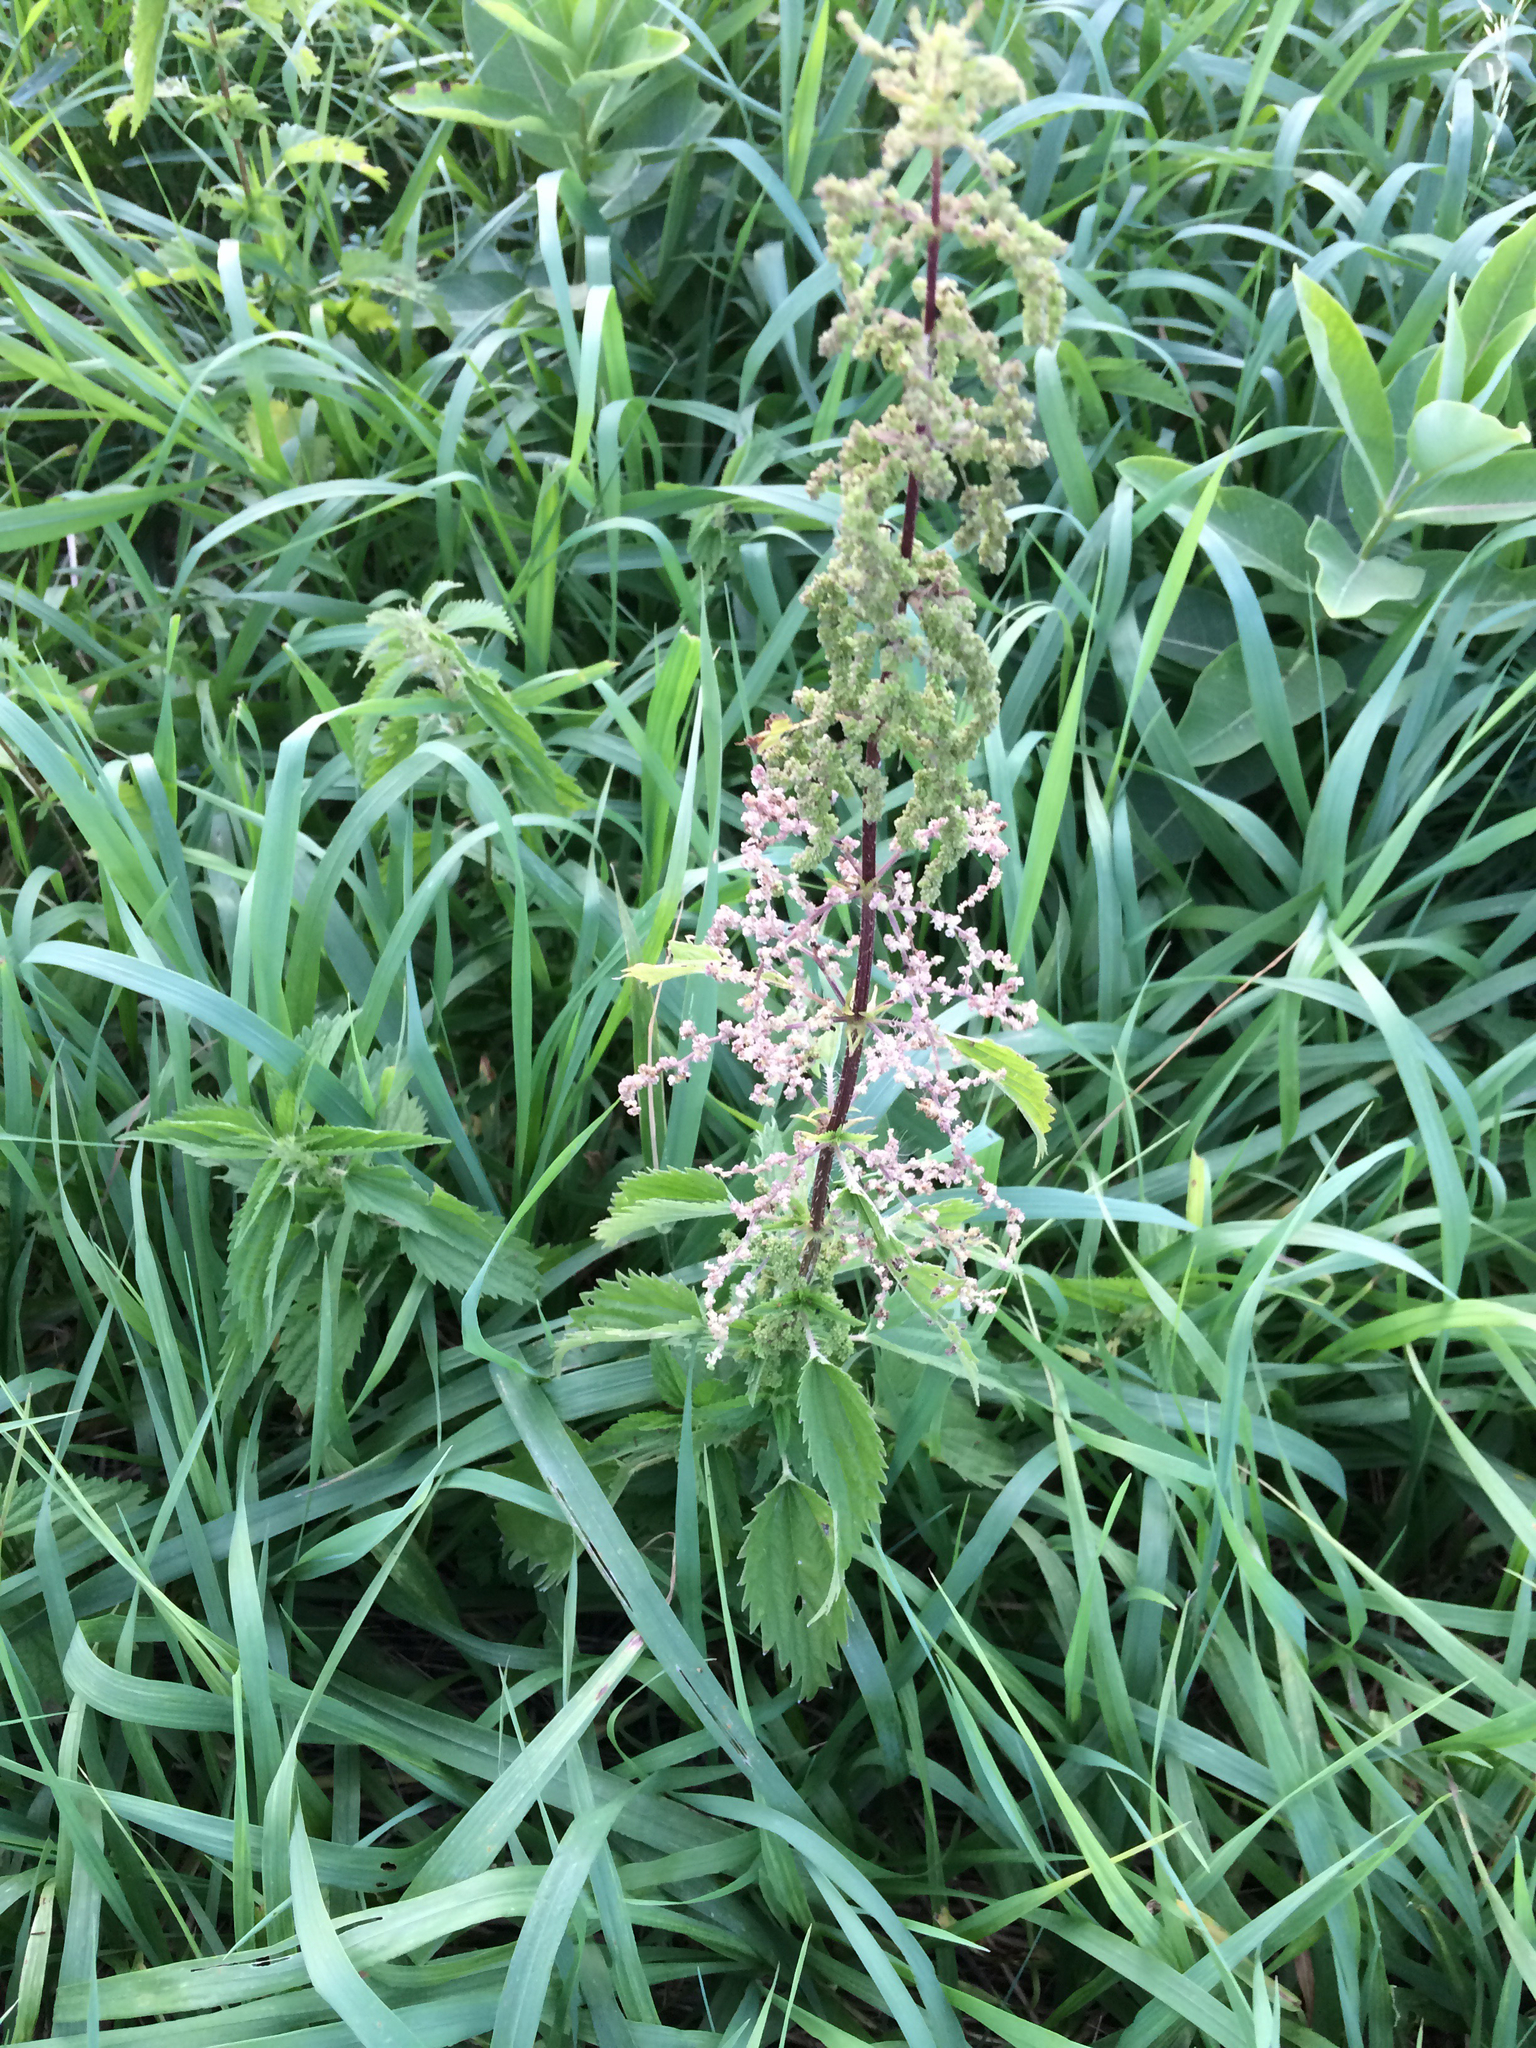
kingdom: Plantae
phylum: Tracheophyta
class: Magnoliopsida
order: Rosales
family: Urticaceae
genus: Urtica
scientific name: Urtica dioica
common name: Common nettle
